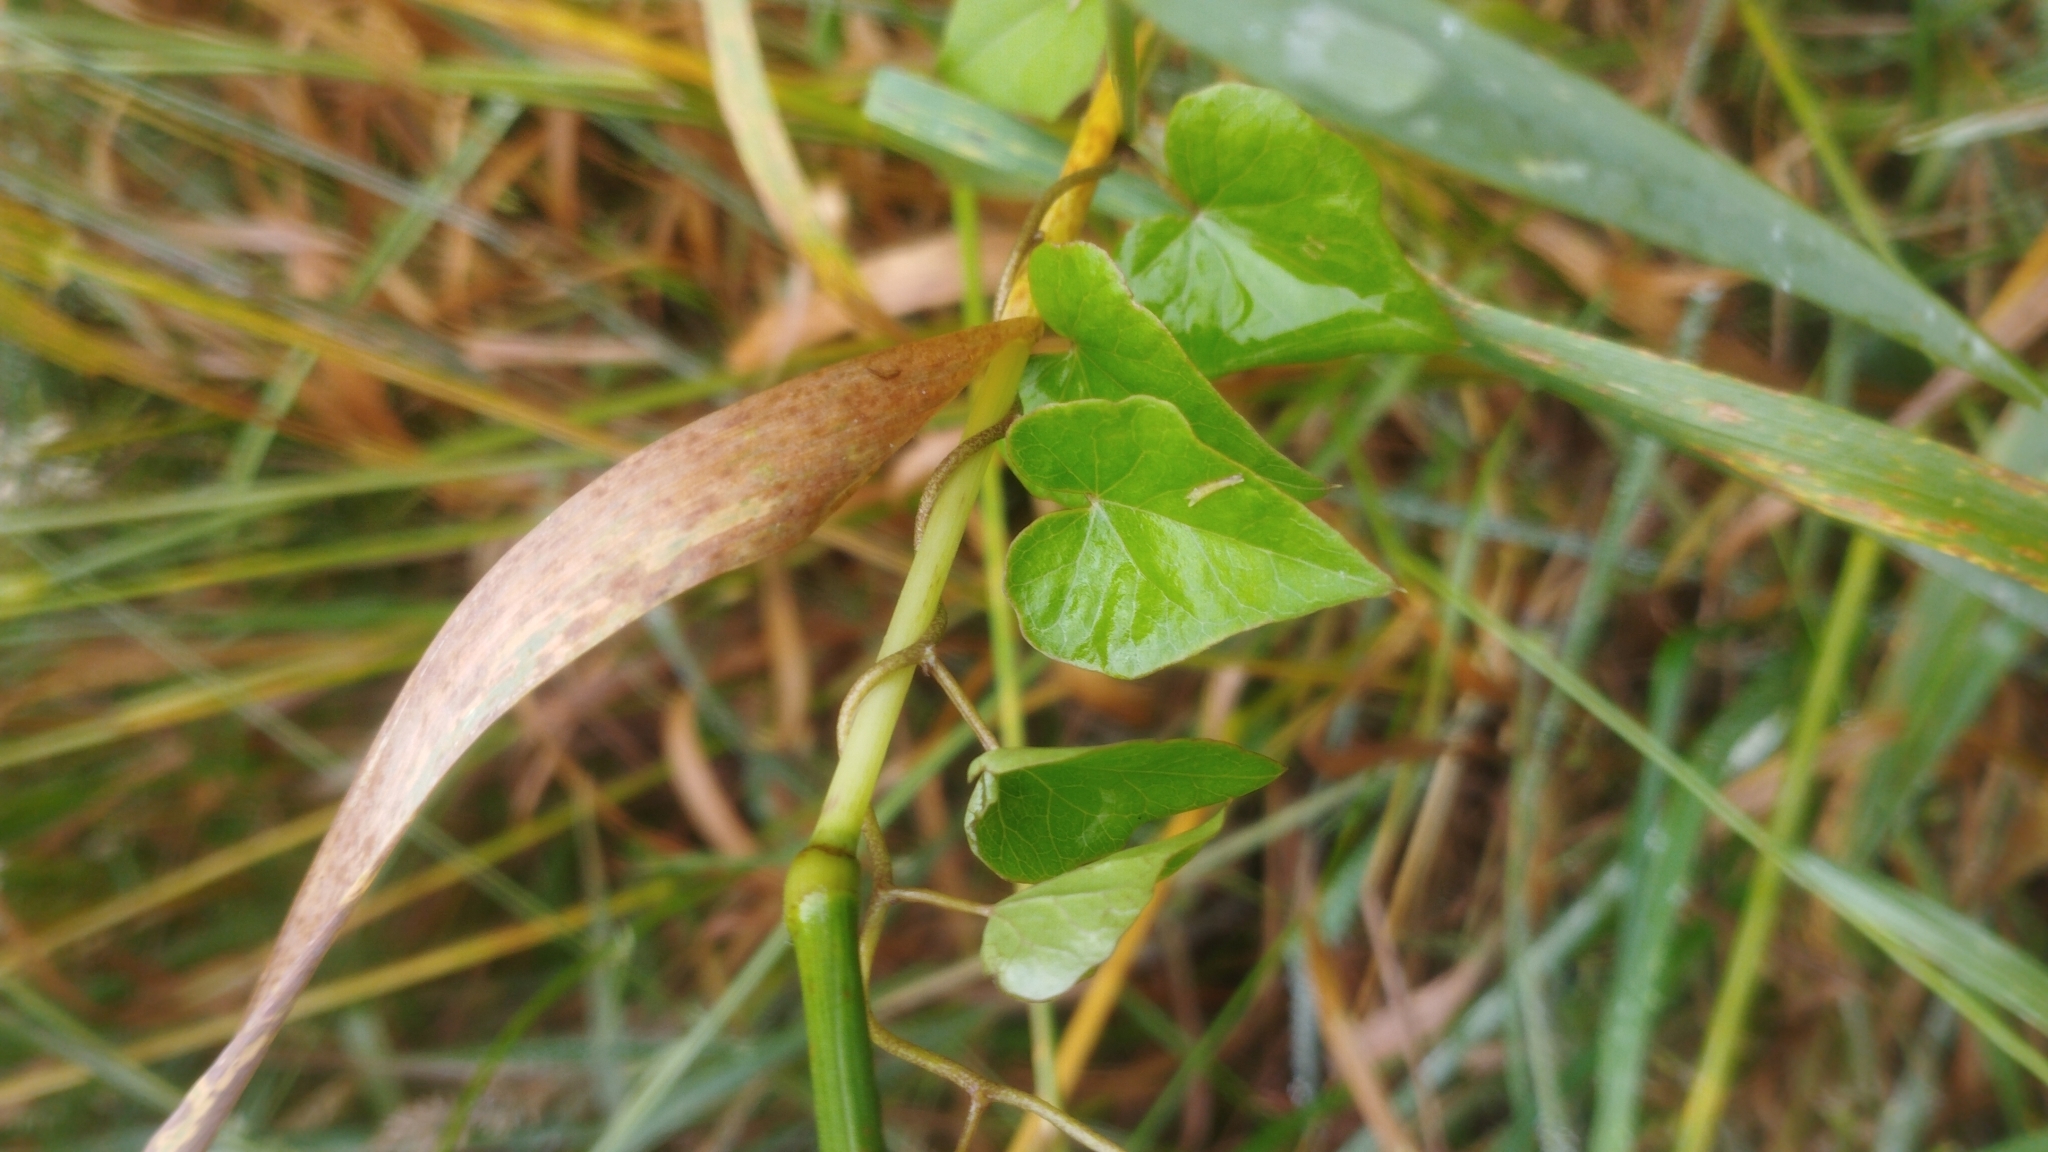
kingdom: Plantae
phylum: Tracheophyta
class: Magnoliopsida
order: Solanales
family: Convolvulaceae
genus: Calystegia
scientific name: Calystegia tuguriorum
